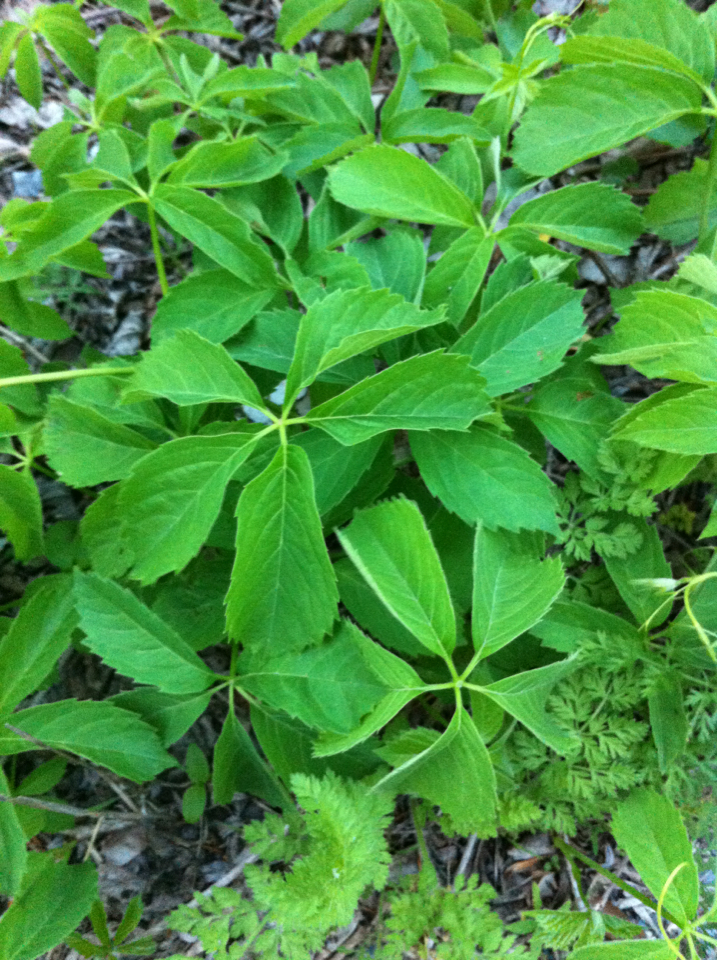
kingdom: Plantae
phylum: Tracheophyta
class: Magnoliopsida
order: Vitales
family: Vitaceae
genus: Parthenocissus
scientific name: Parthenocissus quinquefolia
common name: Virginia-creeper
